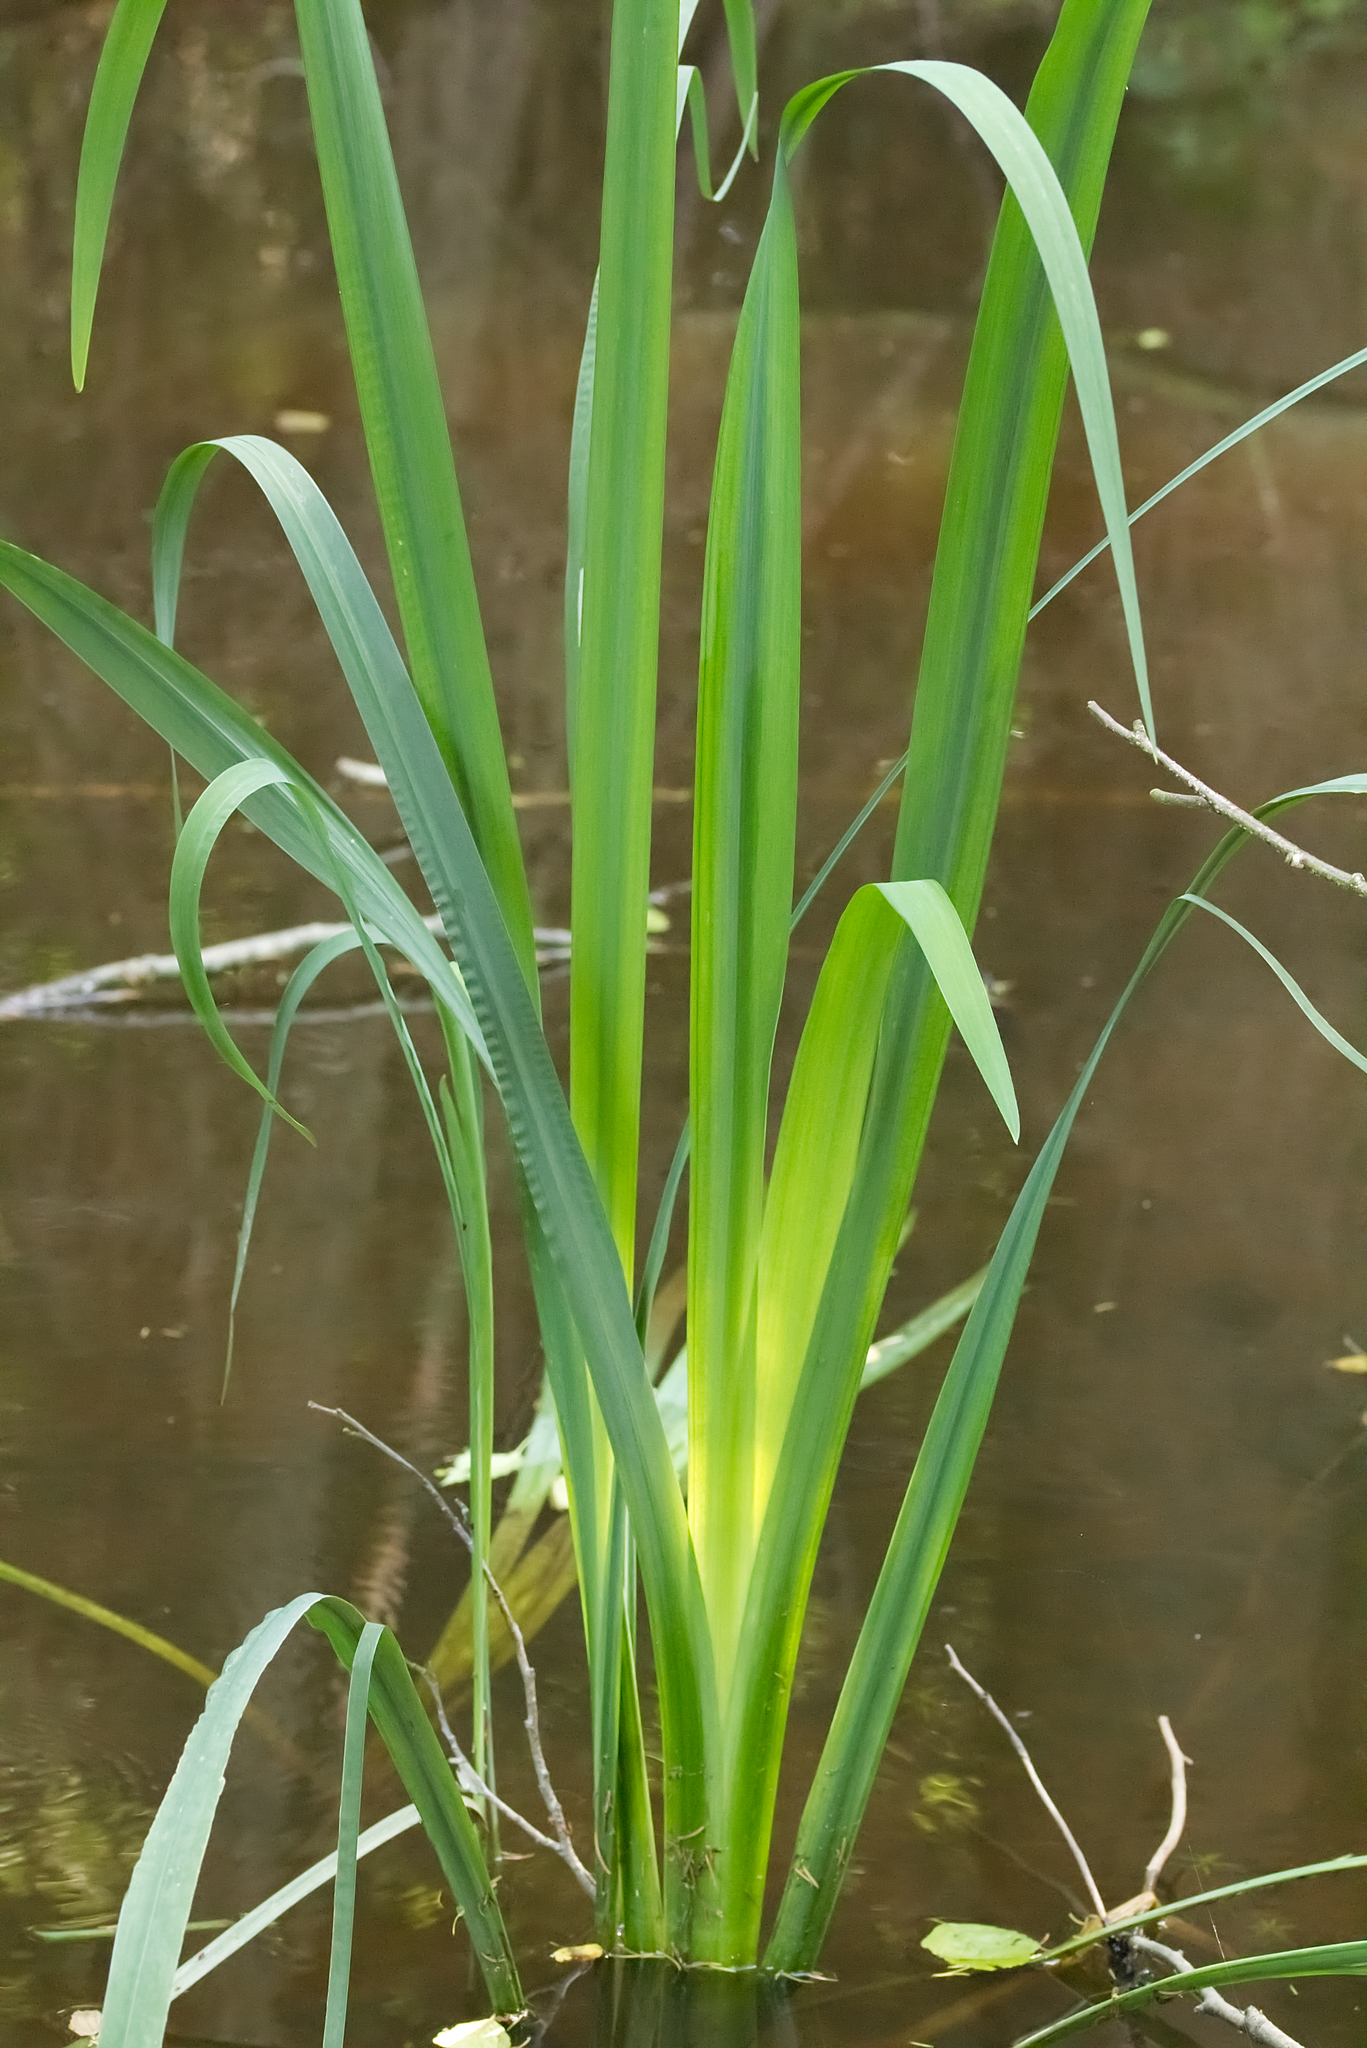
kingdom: Plantae
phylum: Tracheophyta
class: Liliopsida
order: Asparagales
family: Iridaceae
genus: Iris
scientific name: Iris pseudacorus
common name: Yellow flag
